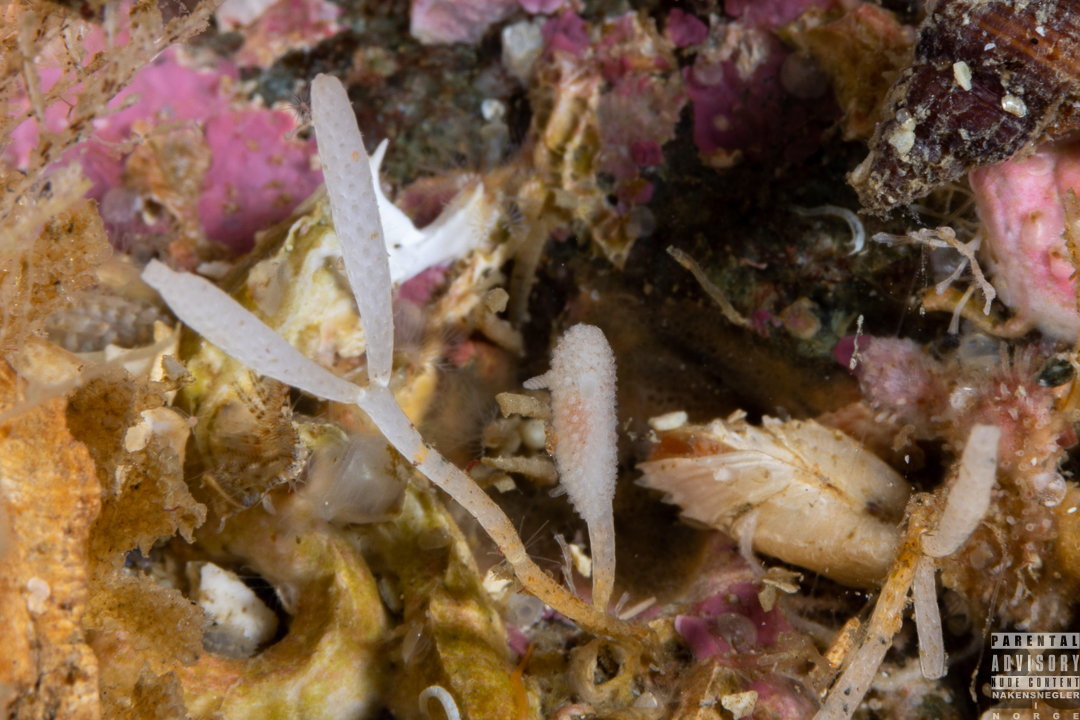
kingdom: Animalia
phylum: Mollusca
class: Gastropoda
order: Nudibranchia
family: Onchidorididae
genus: Atalodoris
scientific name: Atalodoris oblonga
